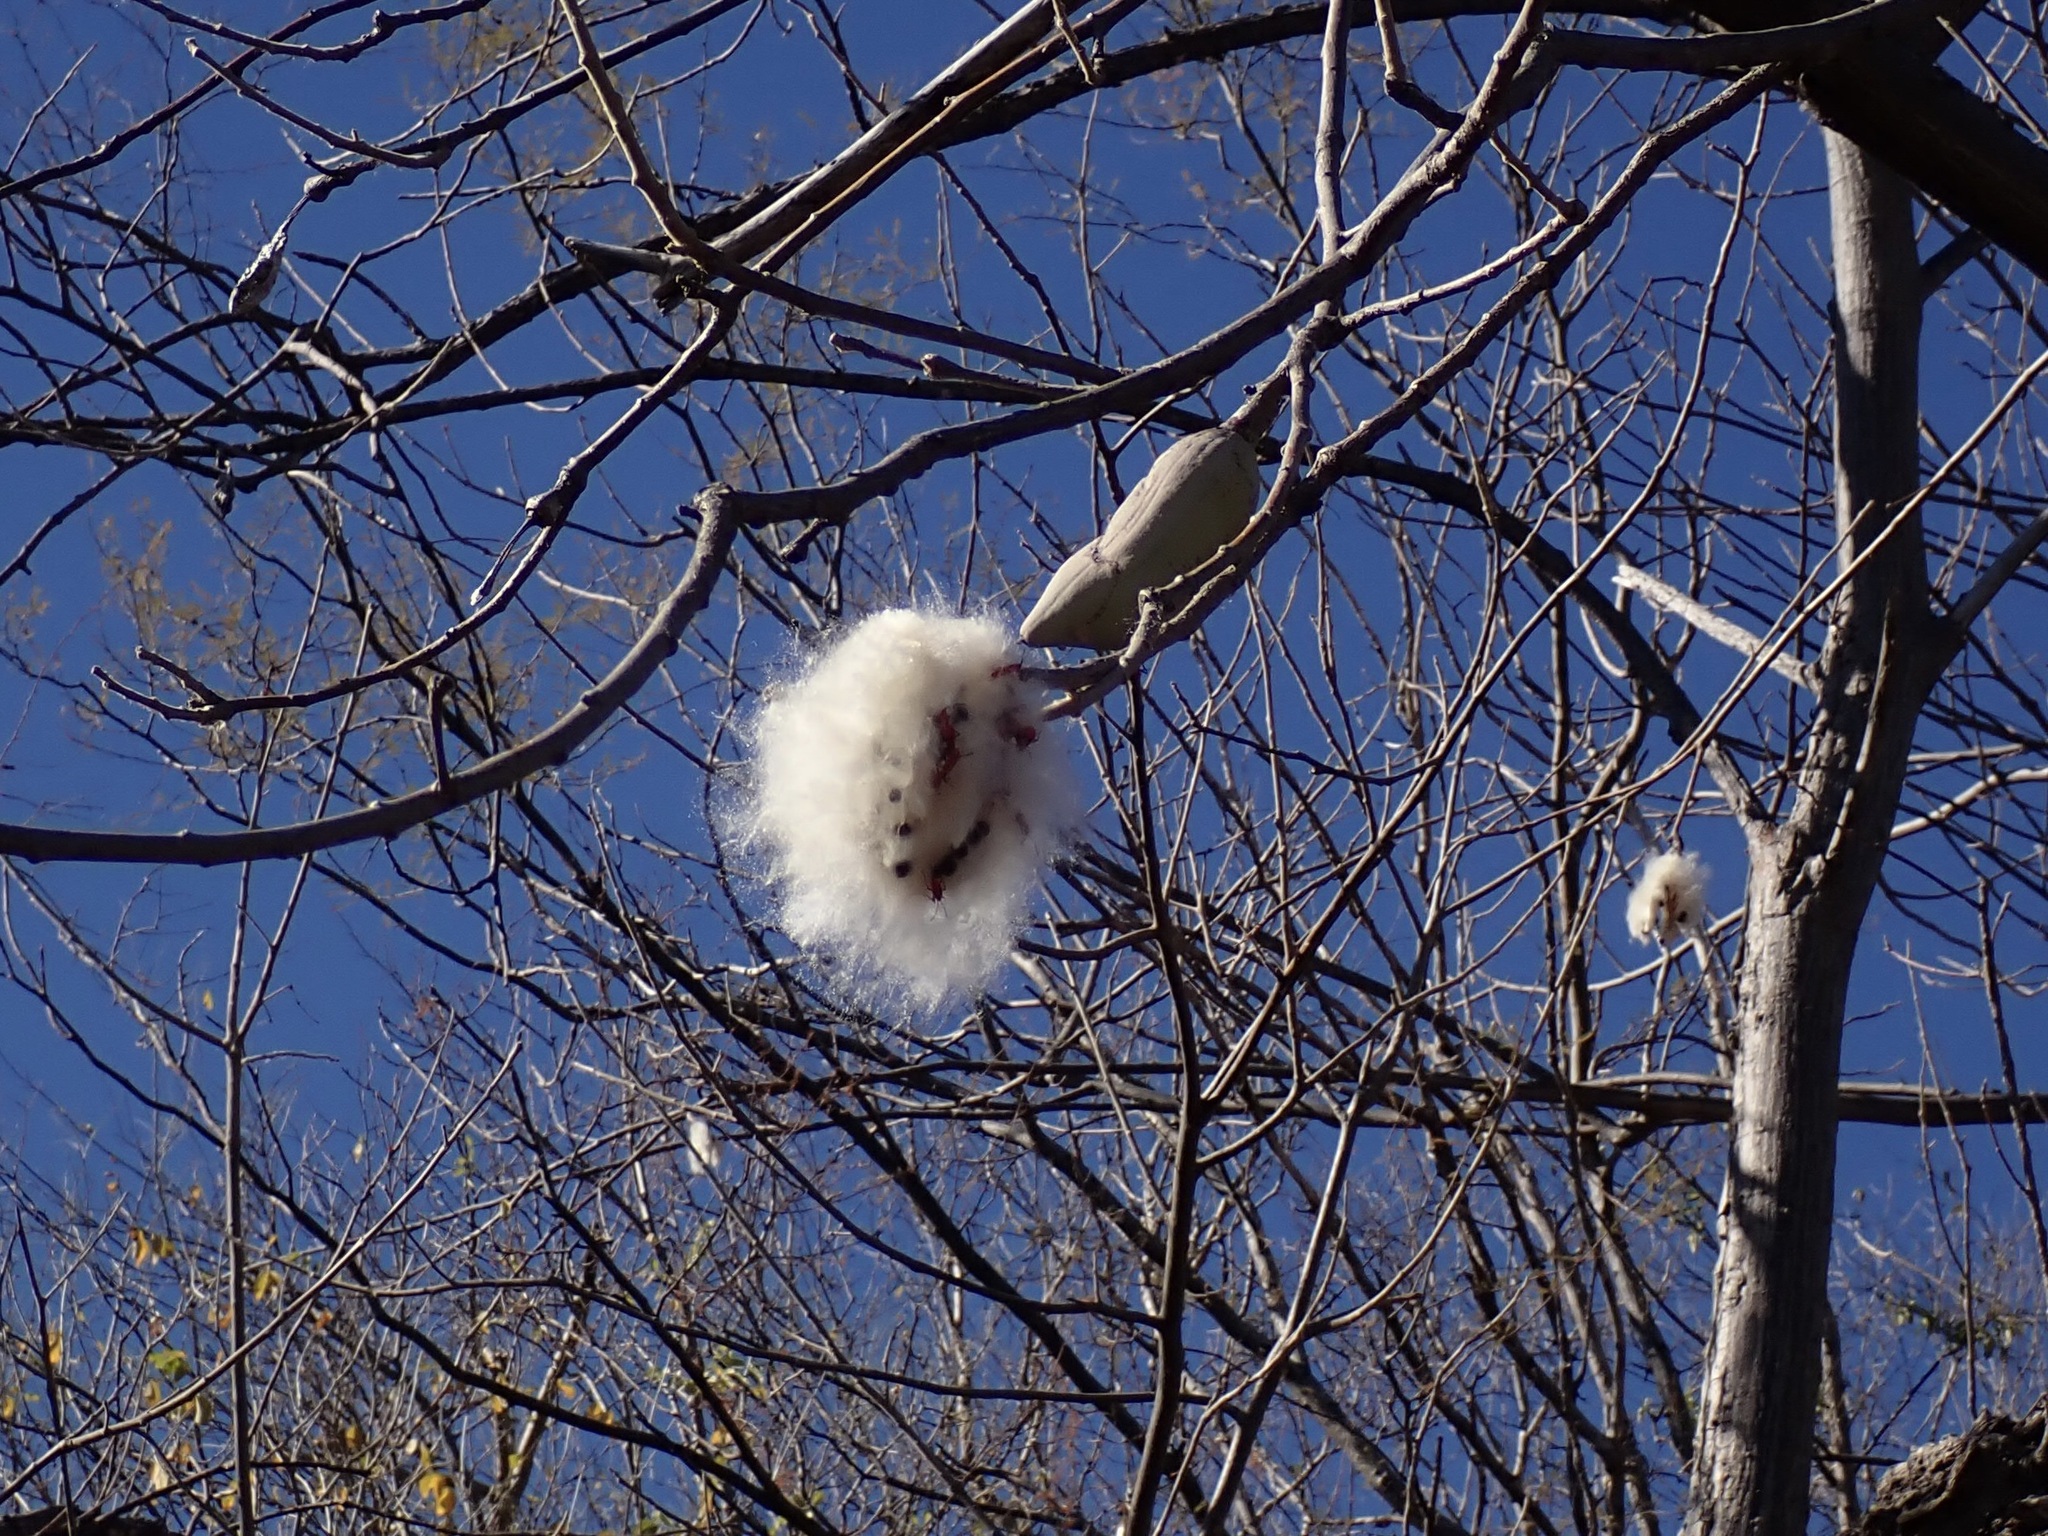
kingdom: Plantae
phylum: Tracheophyta
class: Magnoliopsida
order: Malvales
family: Malvaceae
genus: Ceiba
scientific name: Ceiba aesculifolia
